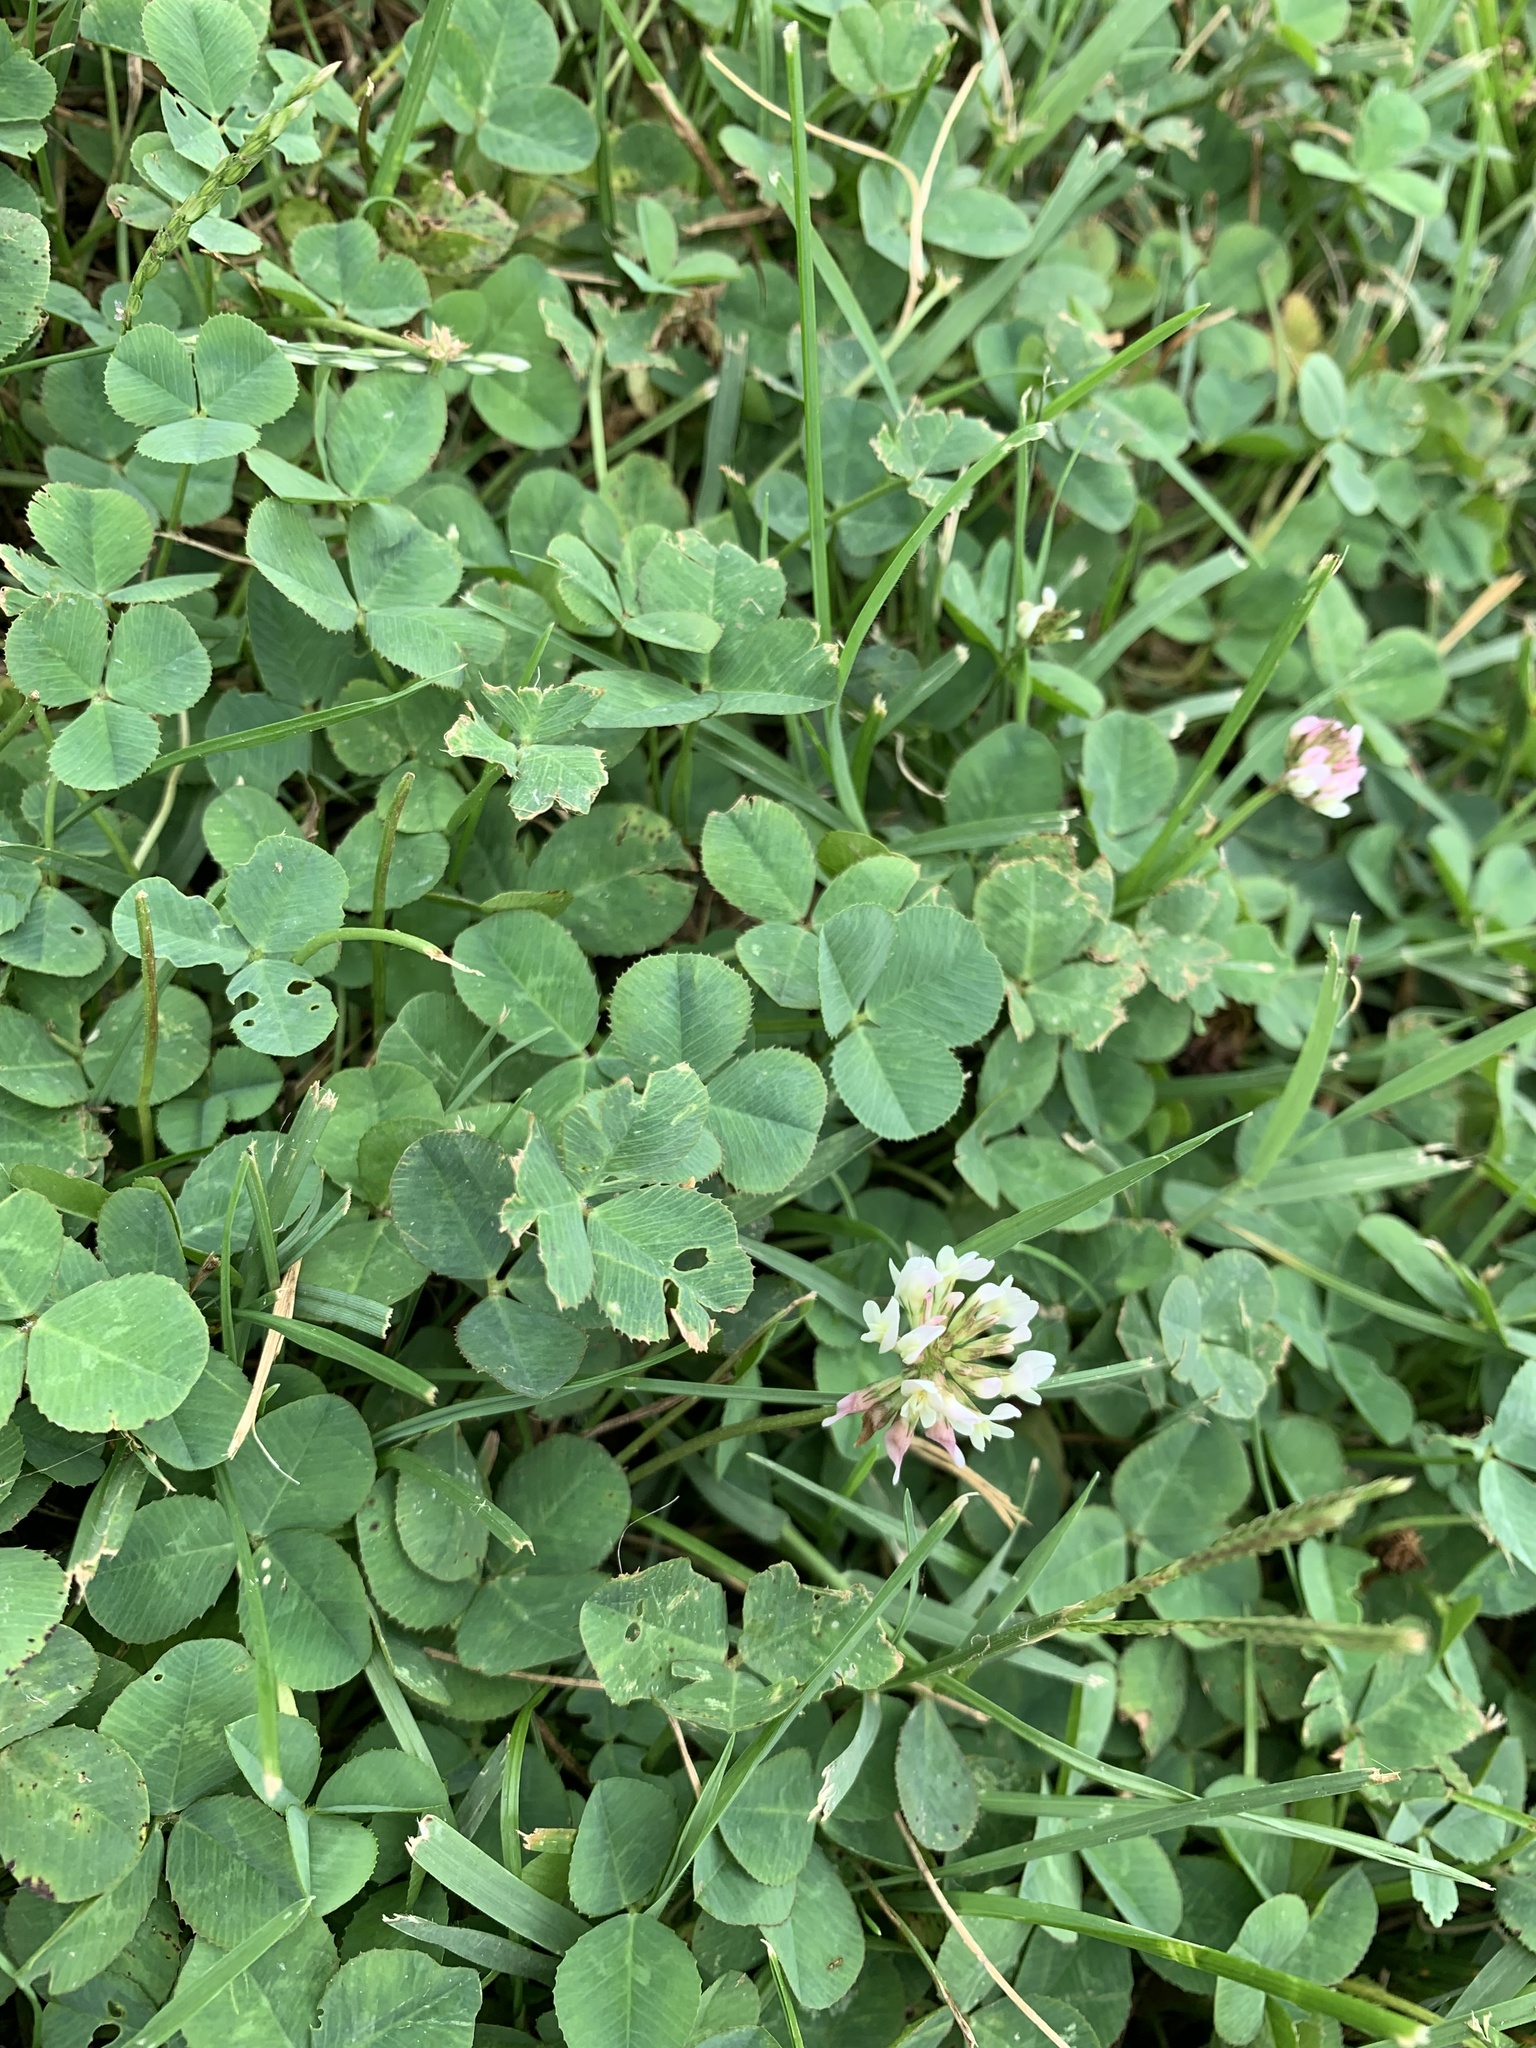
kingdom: Plantae
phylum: Tracheophyta
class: Magnoliopsida
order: Fabales
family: Fabaceae
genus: Trifolium
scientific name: Trifolium repens
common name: White clover
